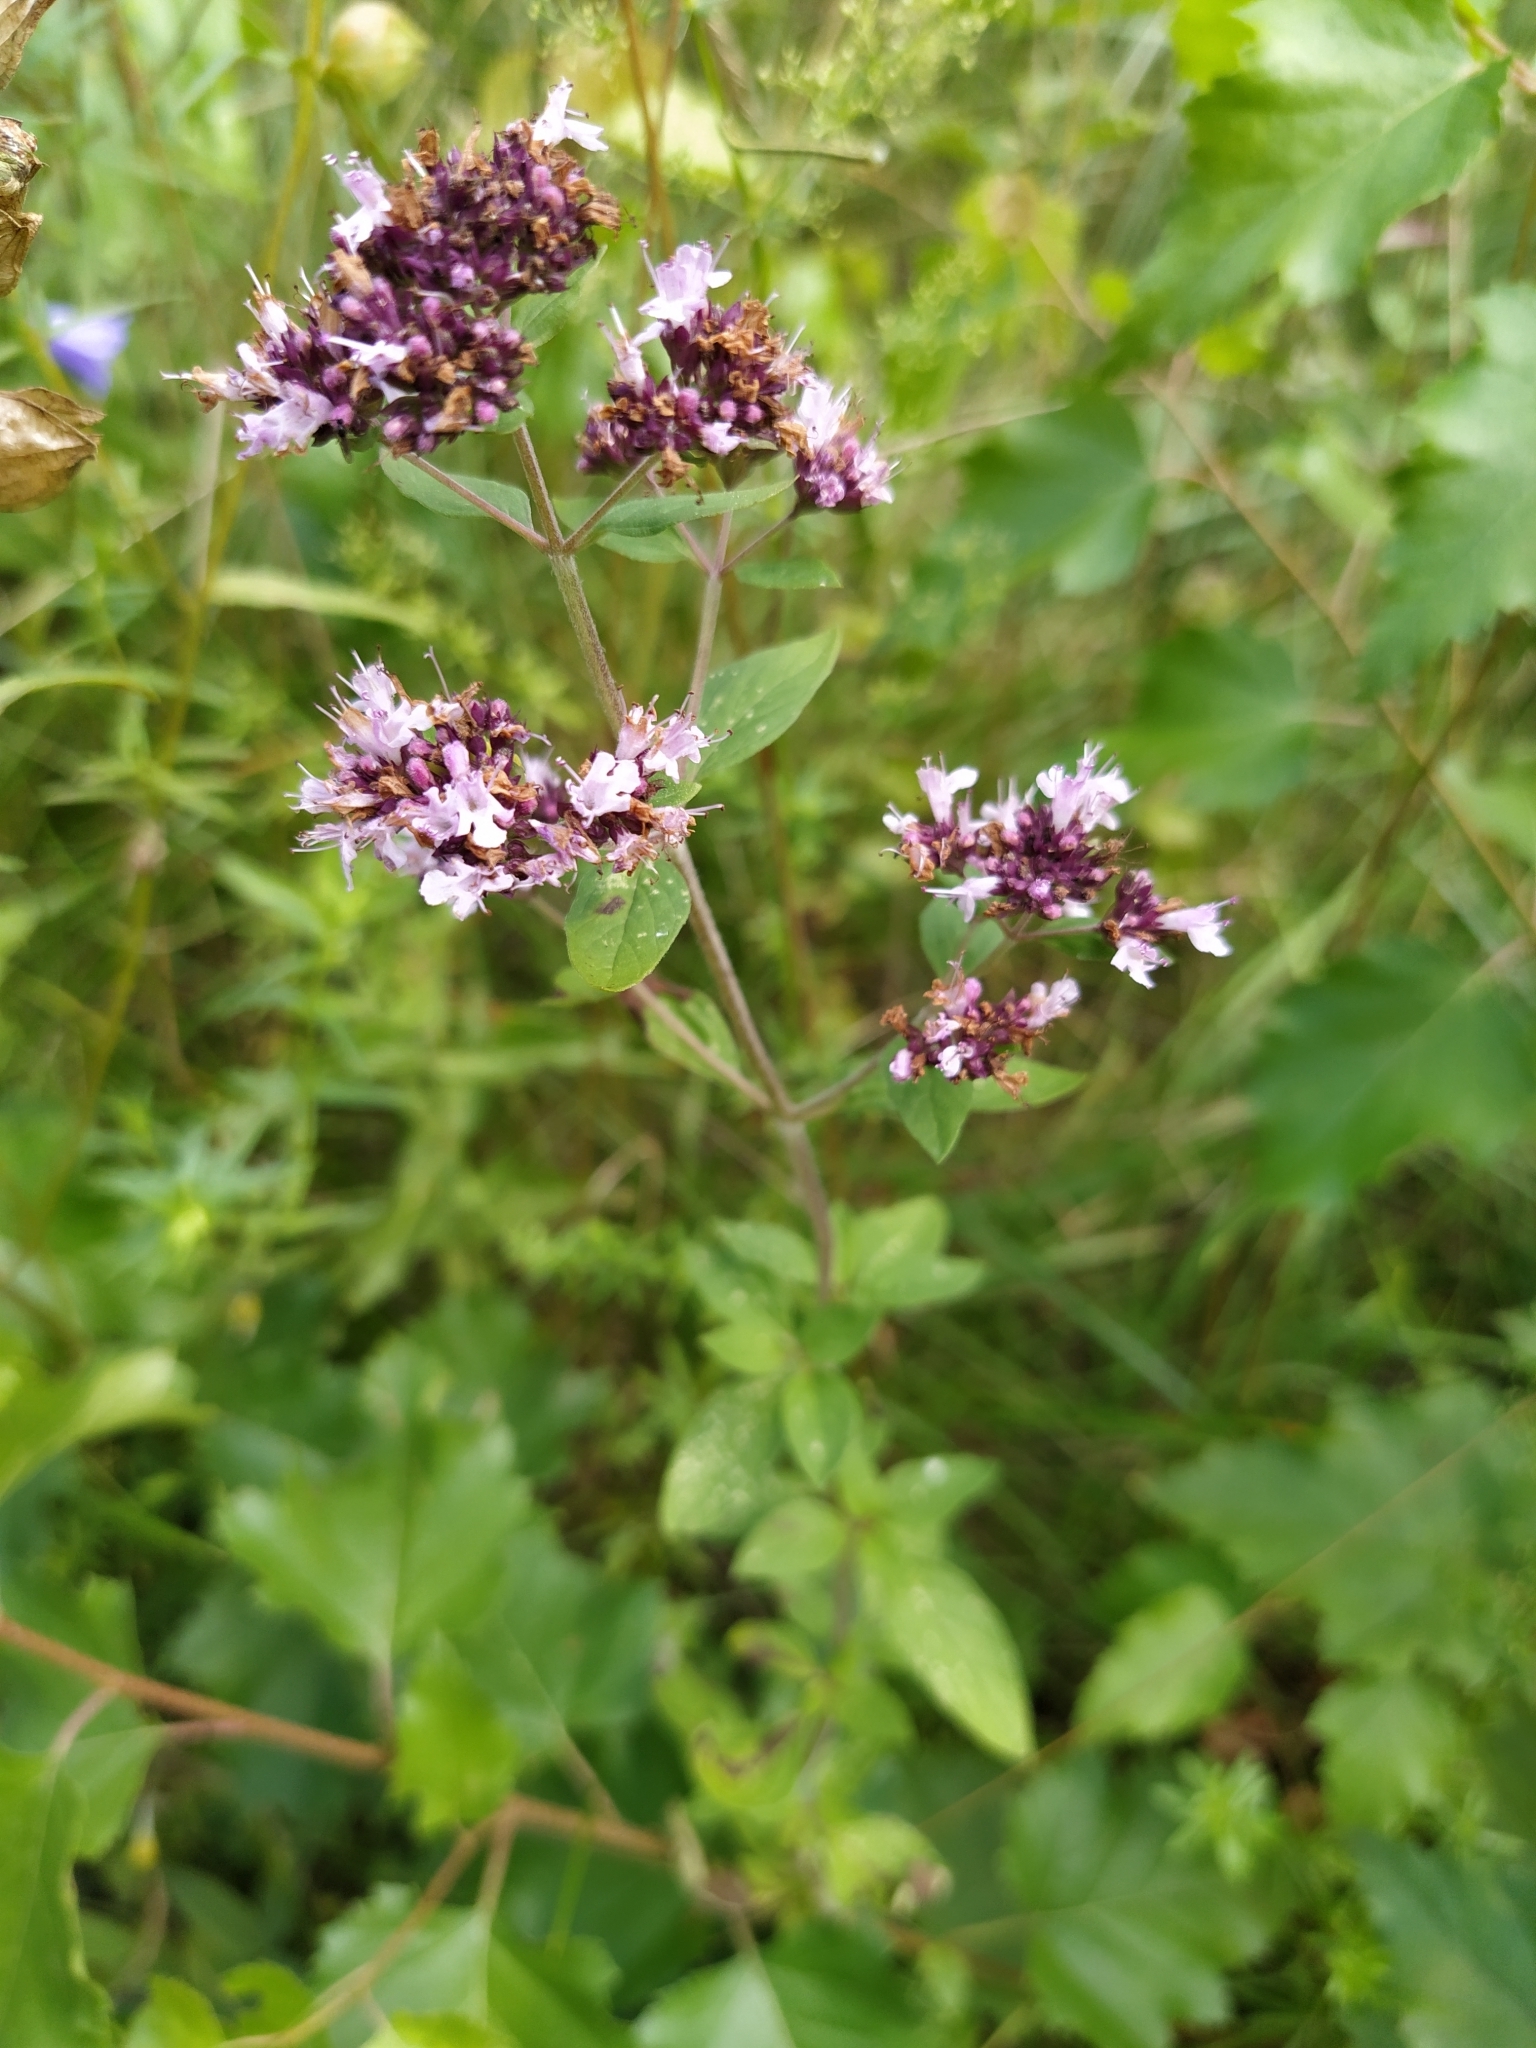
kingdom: Plantae
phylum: Tracheophyta
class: Magnoliopsida
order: Lamiales
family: Lamiaceae
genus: Origanum
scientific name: Origanum vulgare
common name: Wild marjoram
